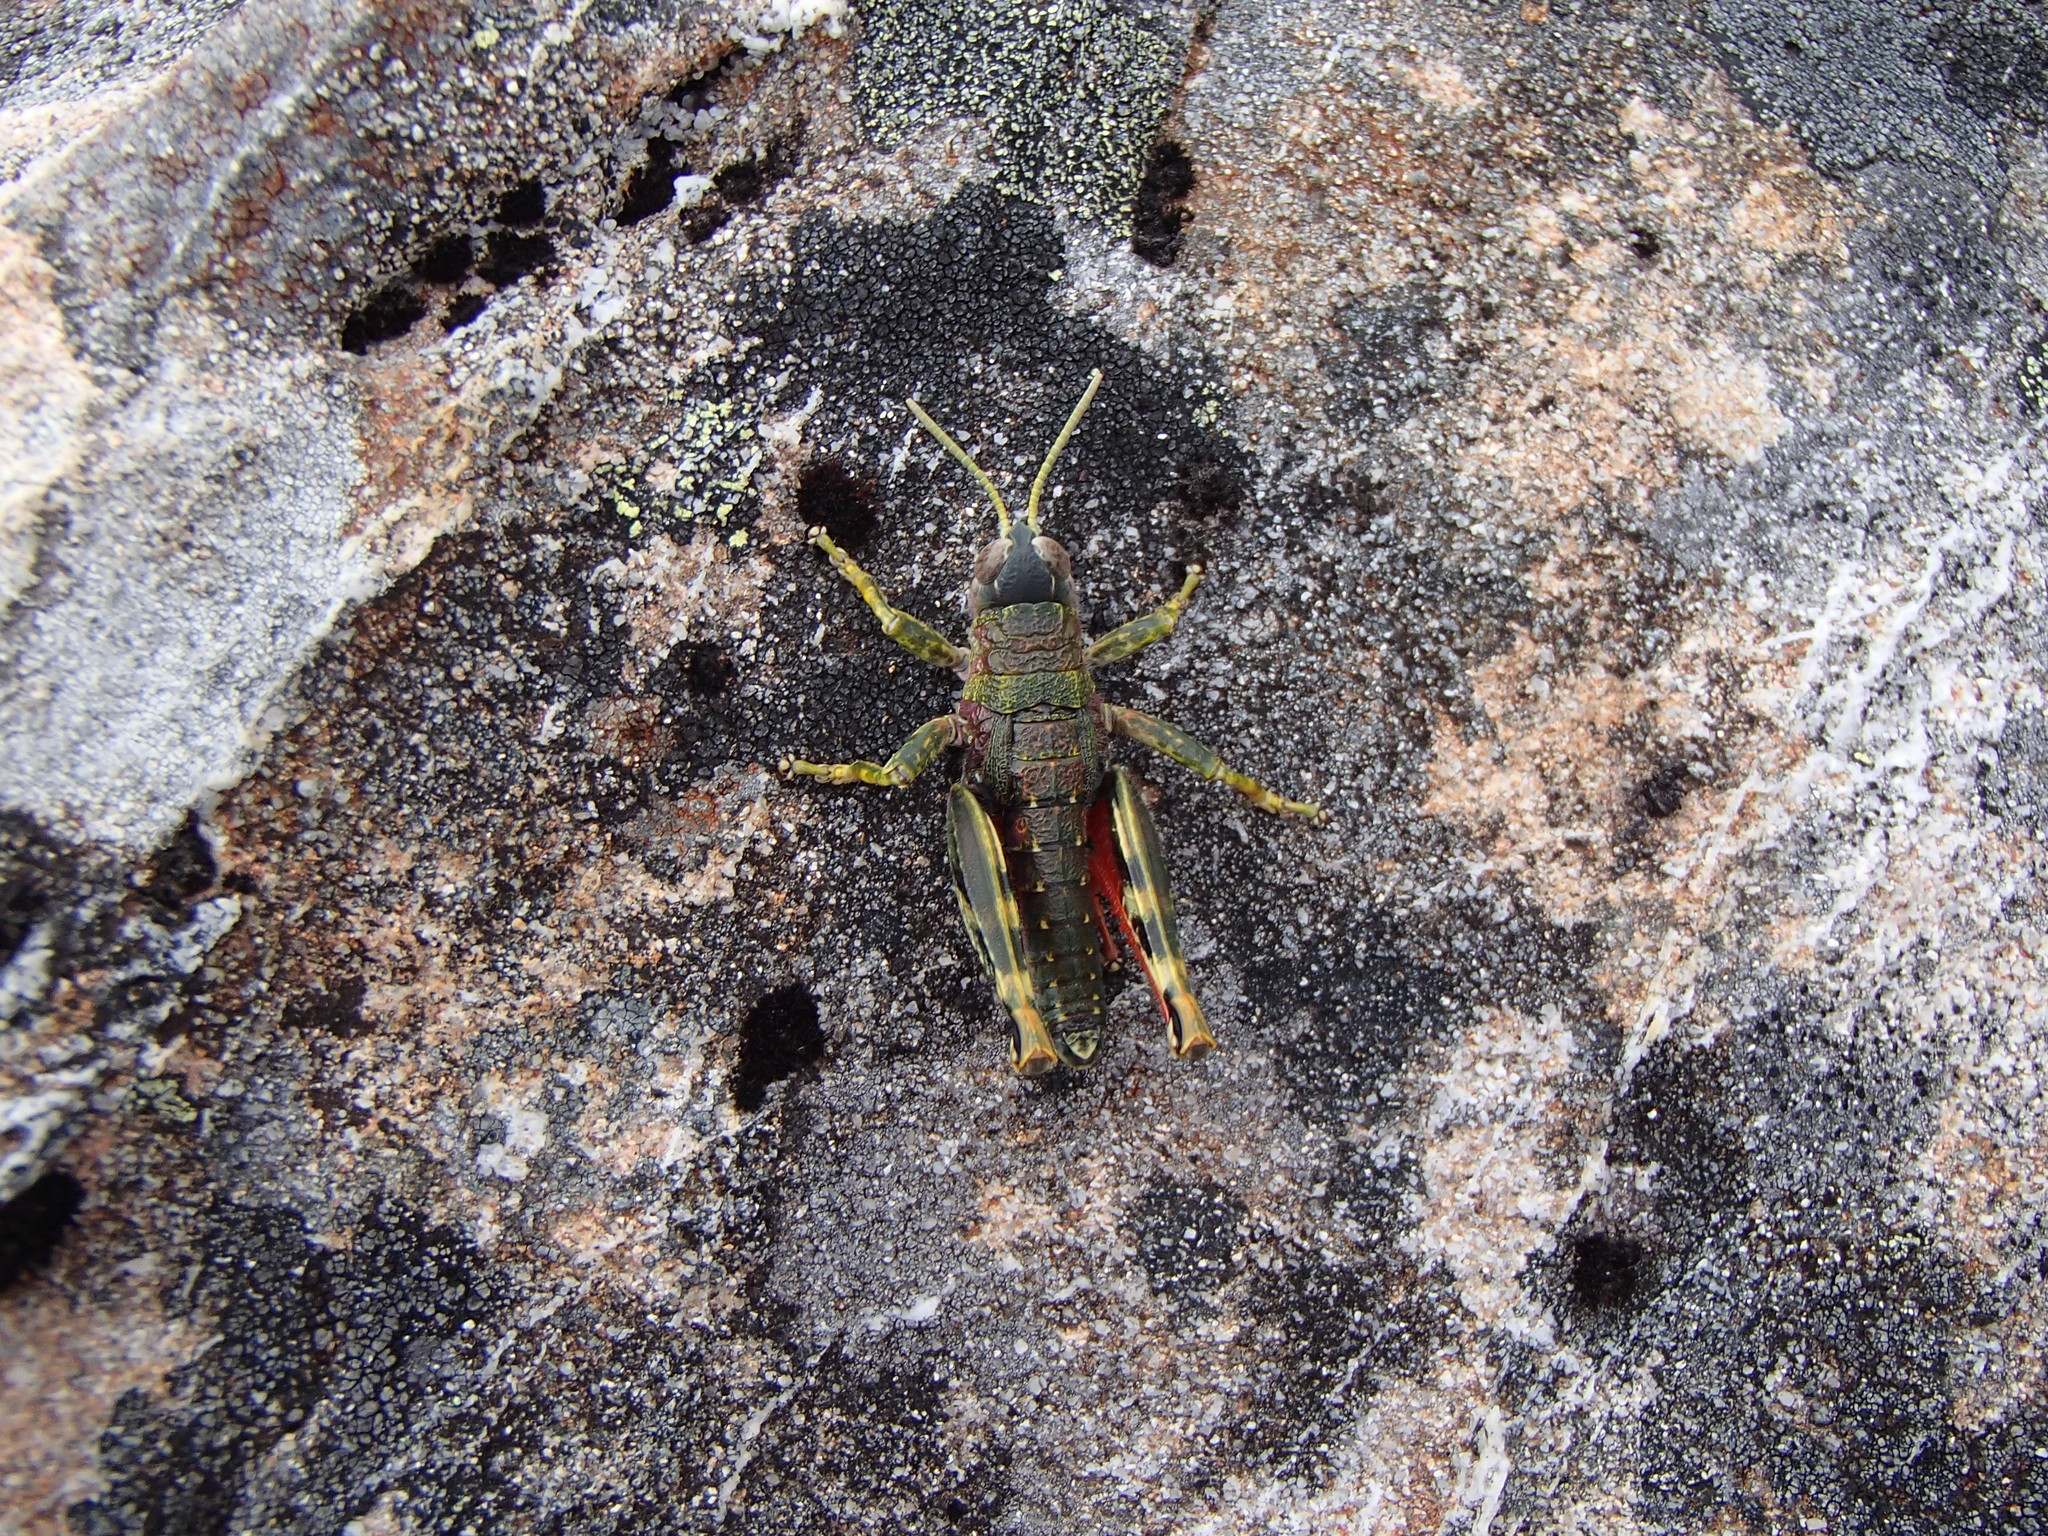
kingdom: Animalia
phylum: Arthropoda
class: Insecta
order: Orthoptera
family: Acrididae
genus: Sigaus
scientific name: Sigaus
